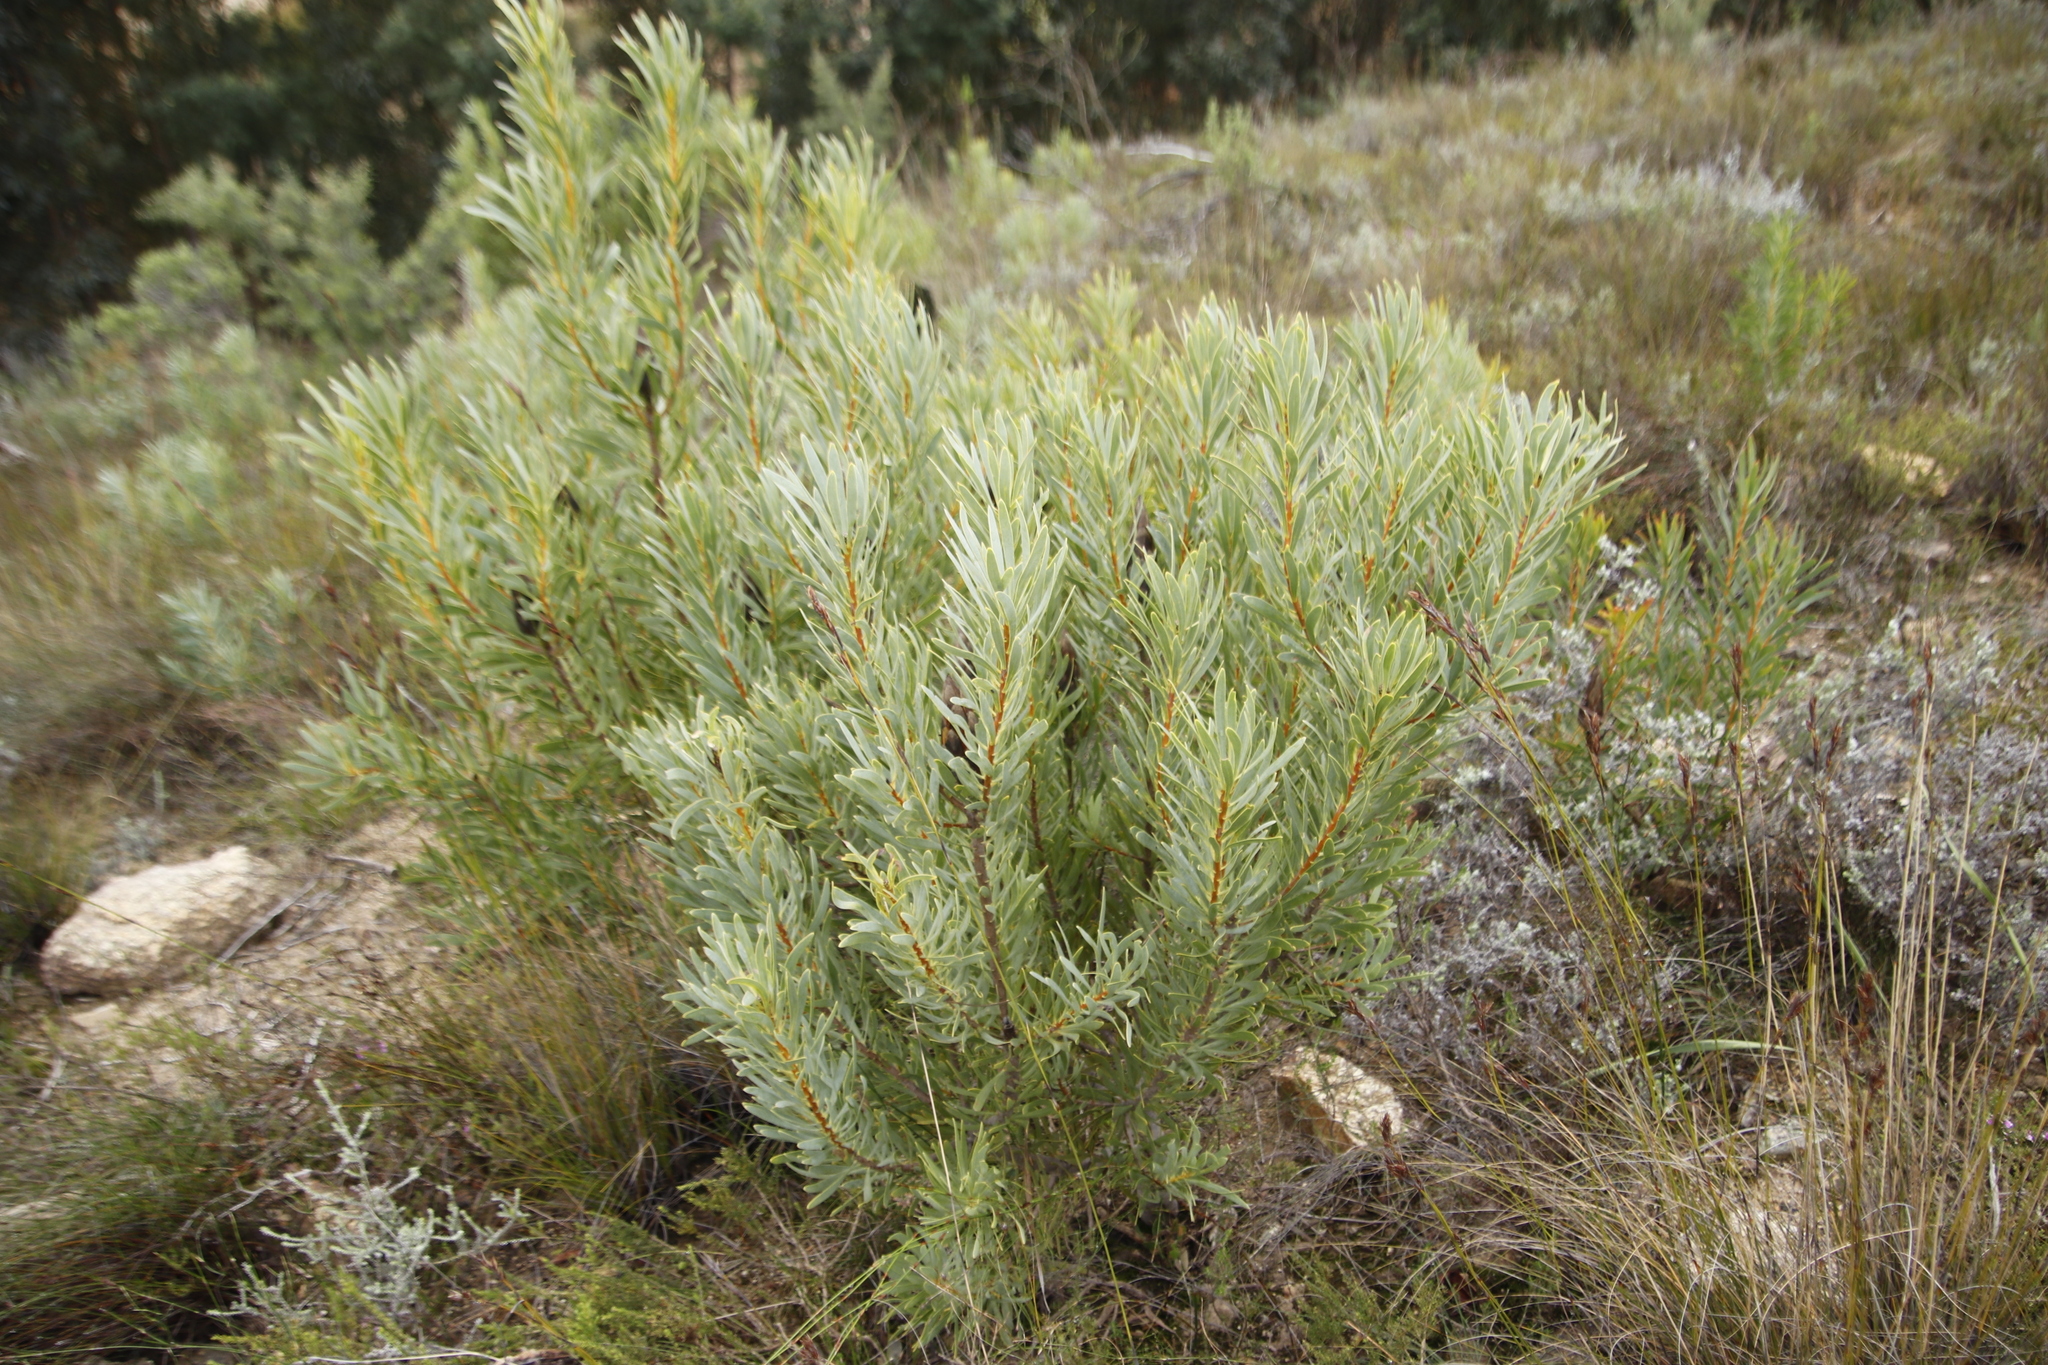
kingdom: Plantae
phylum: Tracheophyta
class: Magnoliopsida
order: Proteales
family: Proteaceae
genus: Protea
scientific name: Protea repens
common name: Sugarbush
